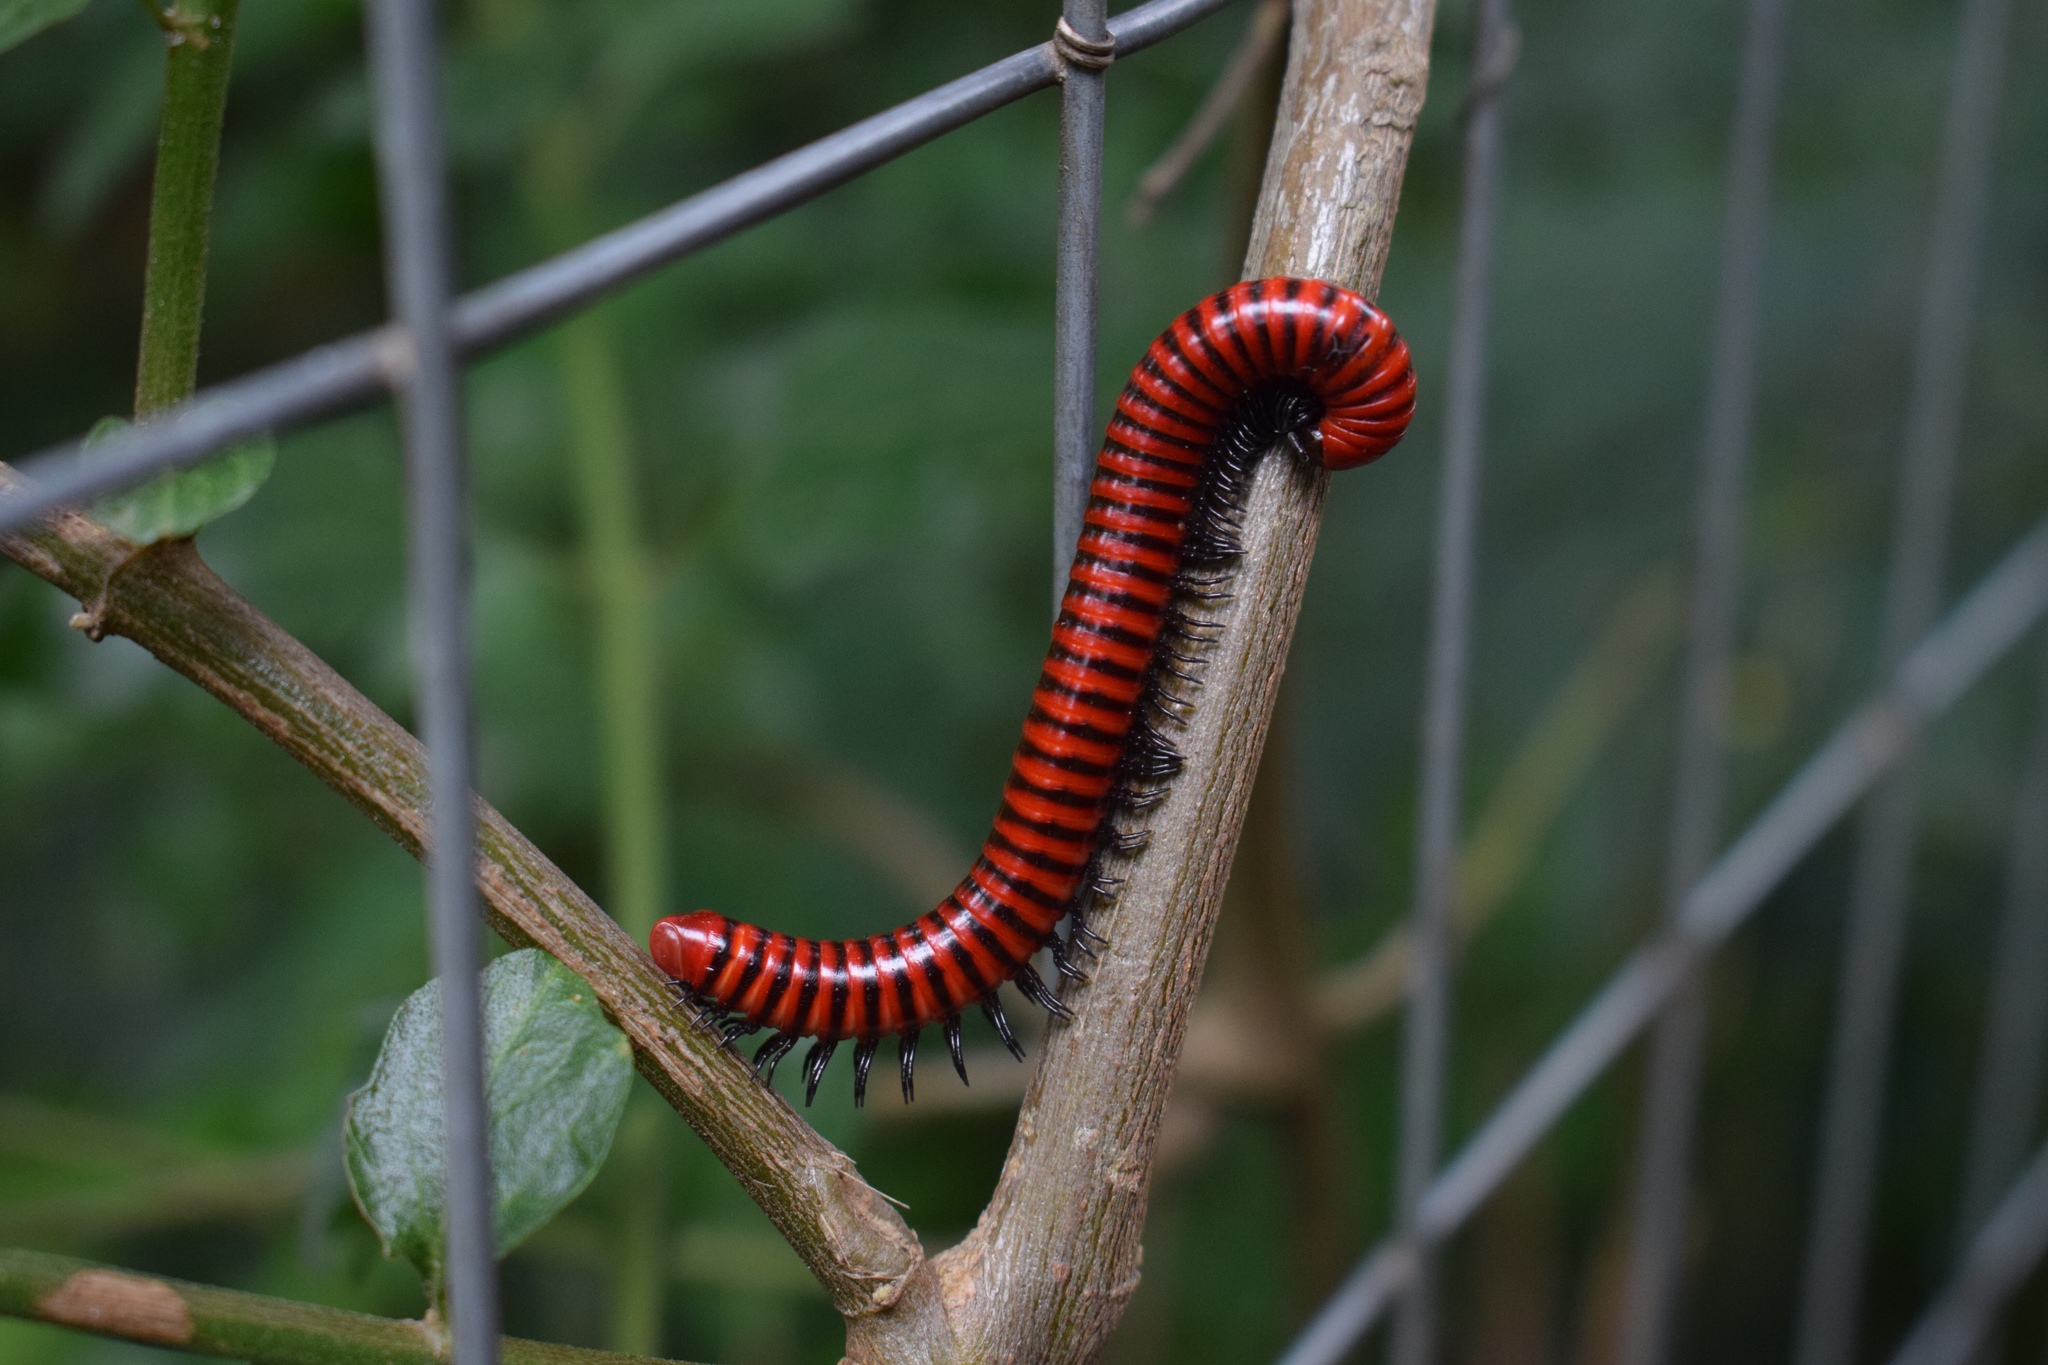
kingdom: Animalia
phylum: Arthropoda
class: Diplopoda
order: Spirobolida
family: Pachybolidae
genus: Centrobolus
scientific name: Centrobolus anulatus
